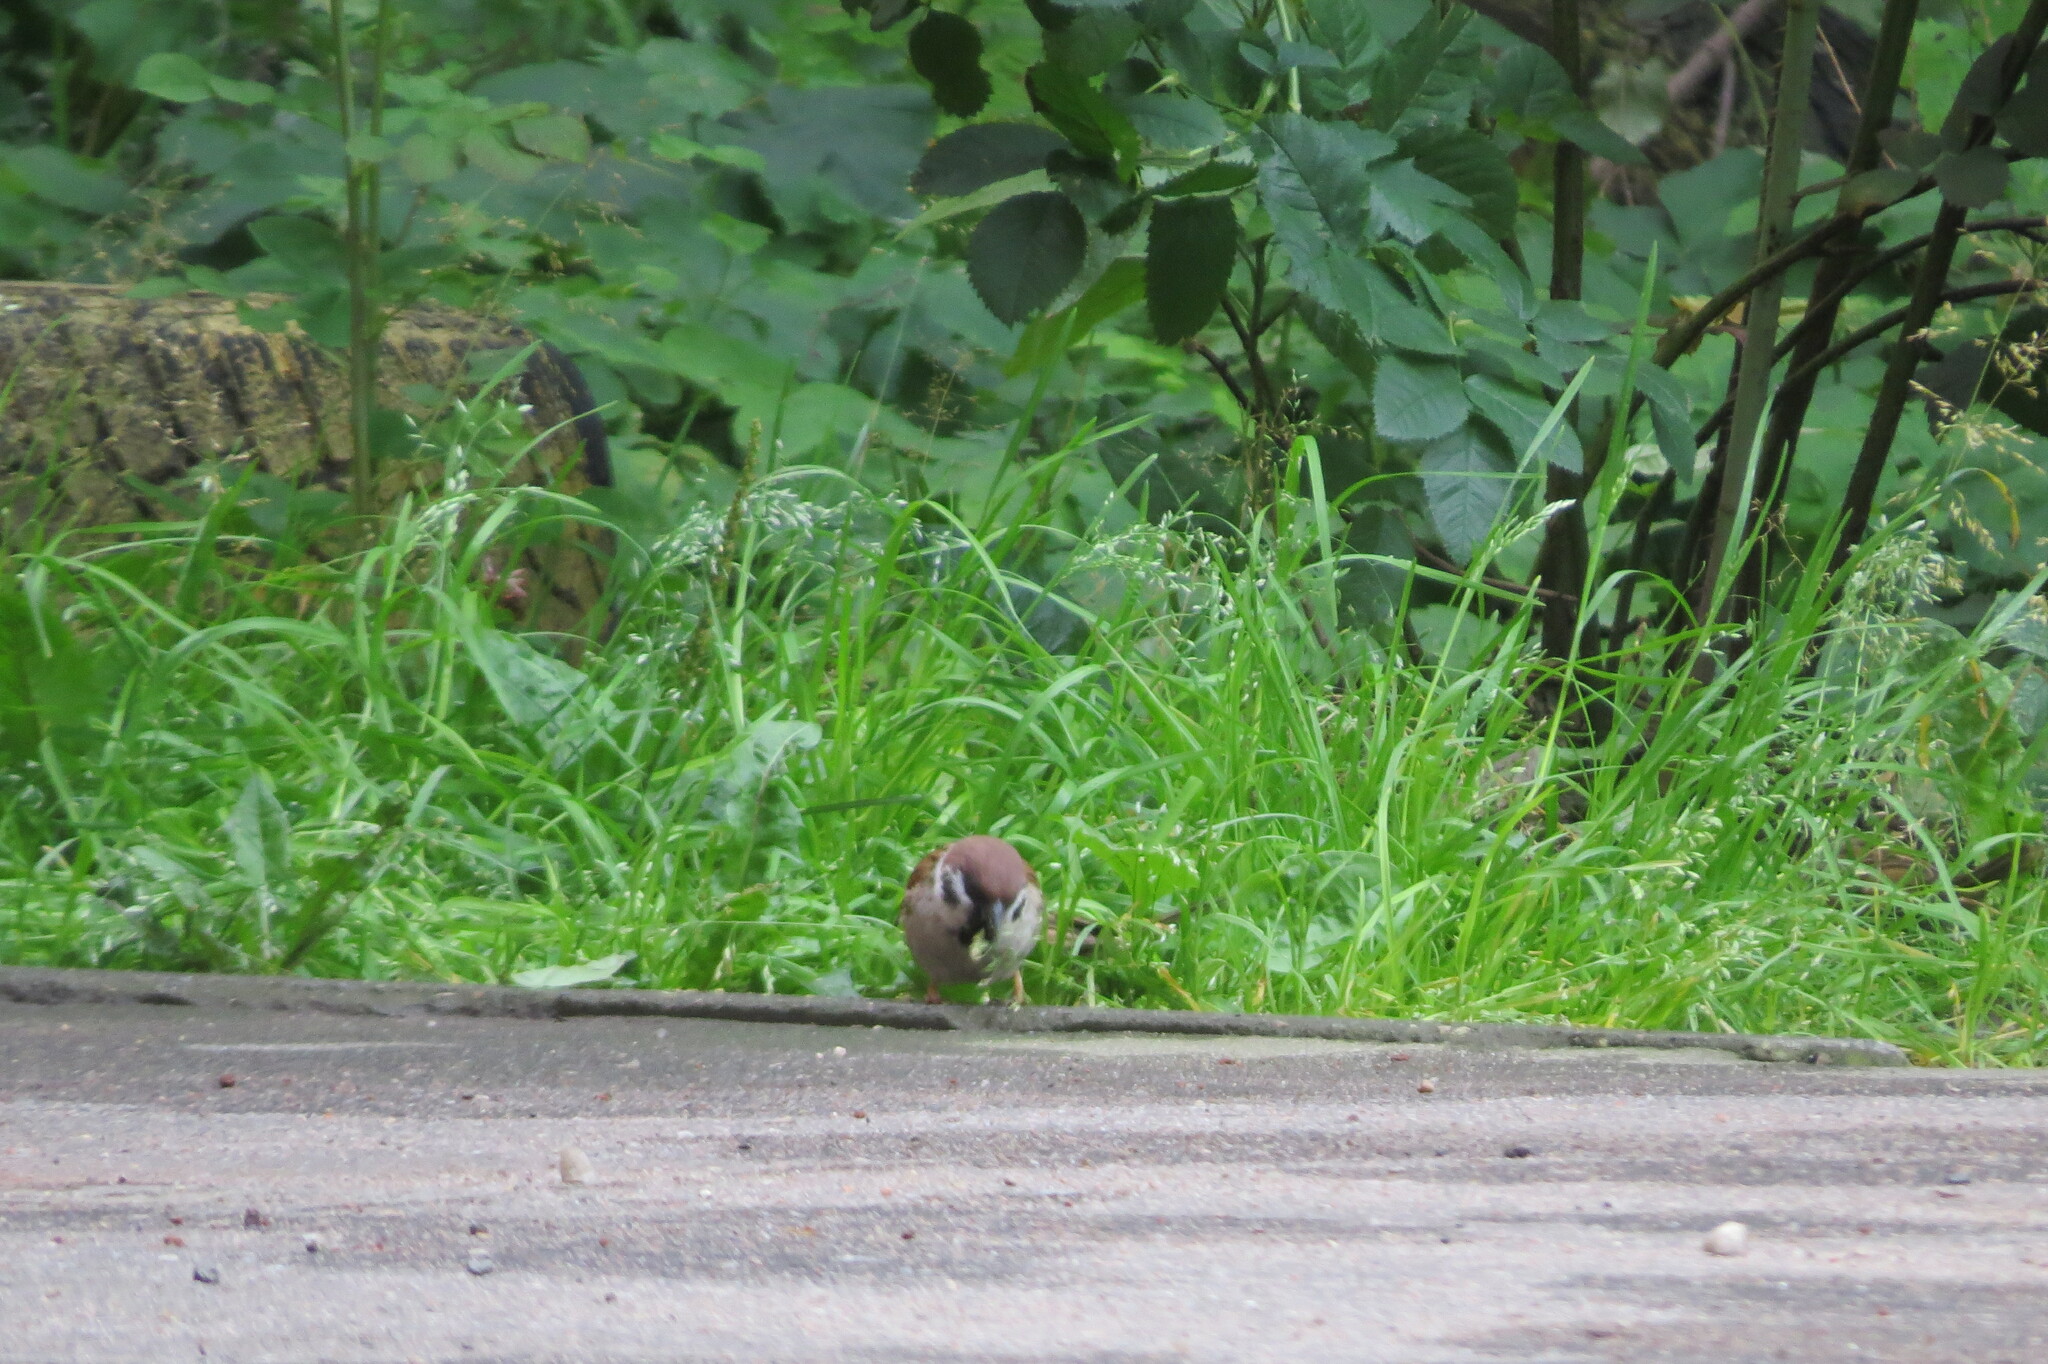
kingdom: Animalia
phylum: Chordata
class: Aves
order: Passeriformes
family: Passeridae
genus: Passer
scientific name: Passer montanus
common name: Eurasian tree sparrow
